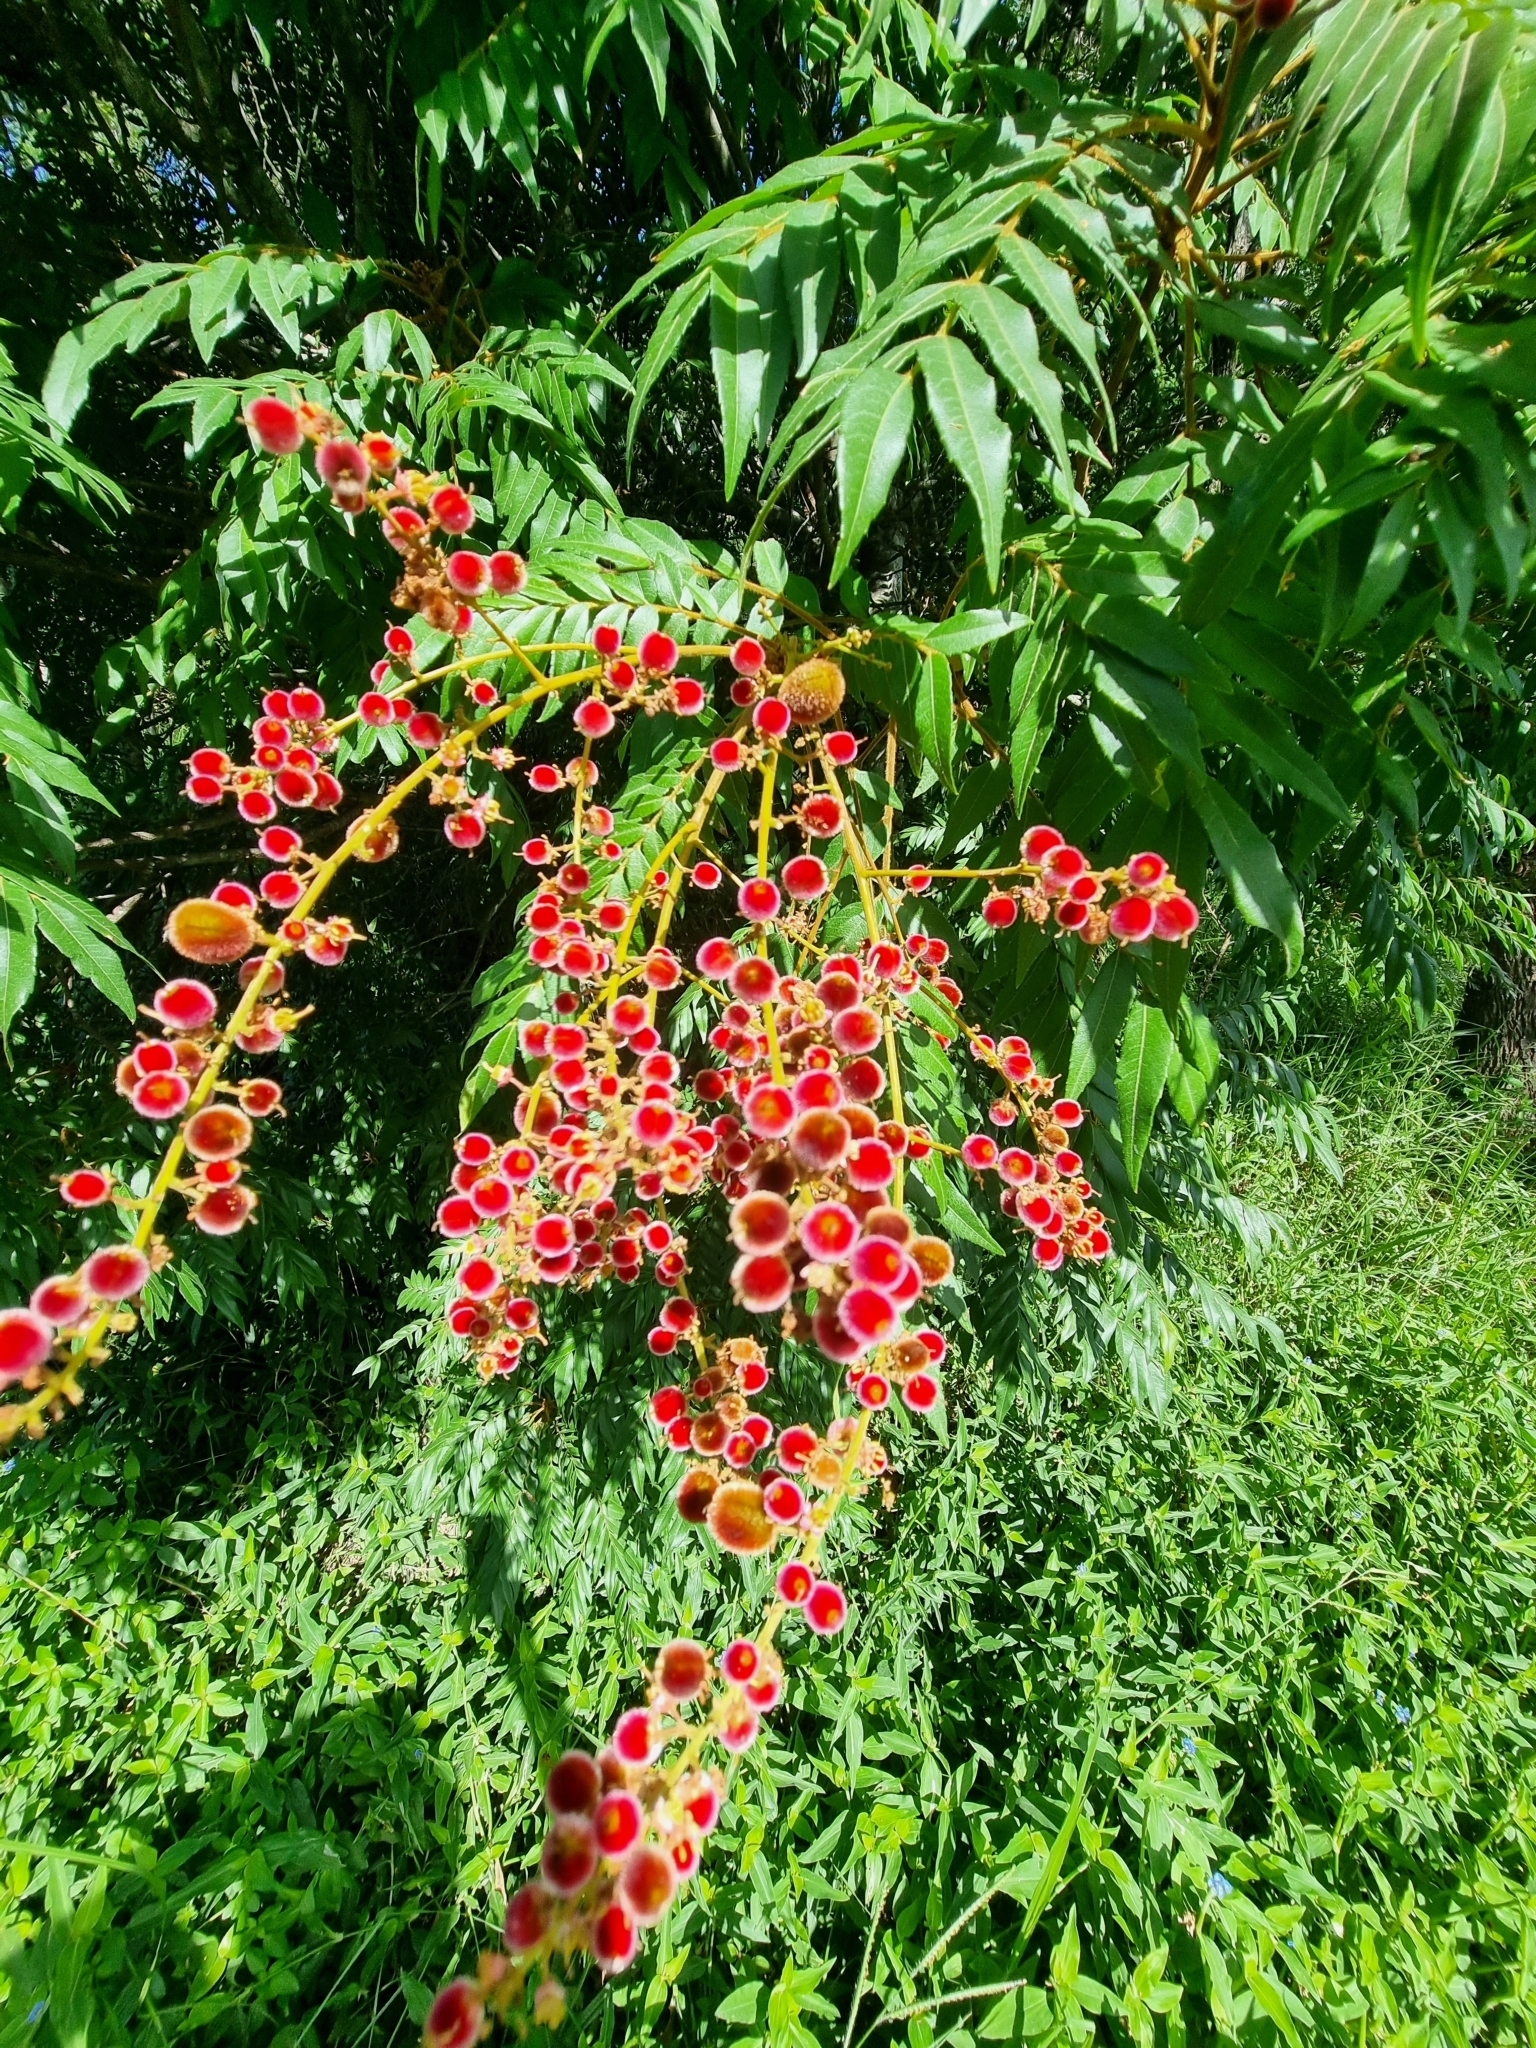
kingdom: Plantae
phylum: Tracheophyta
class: Magnoliopsida
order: Sapindales
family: Sapindaceae
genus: Jagera
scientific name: Jagera pseudorhus
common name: Fern-leaf-tamarind
